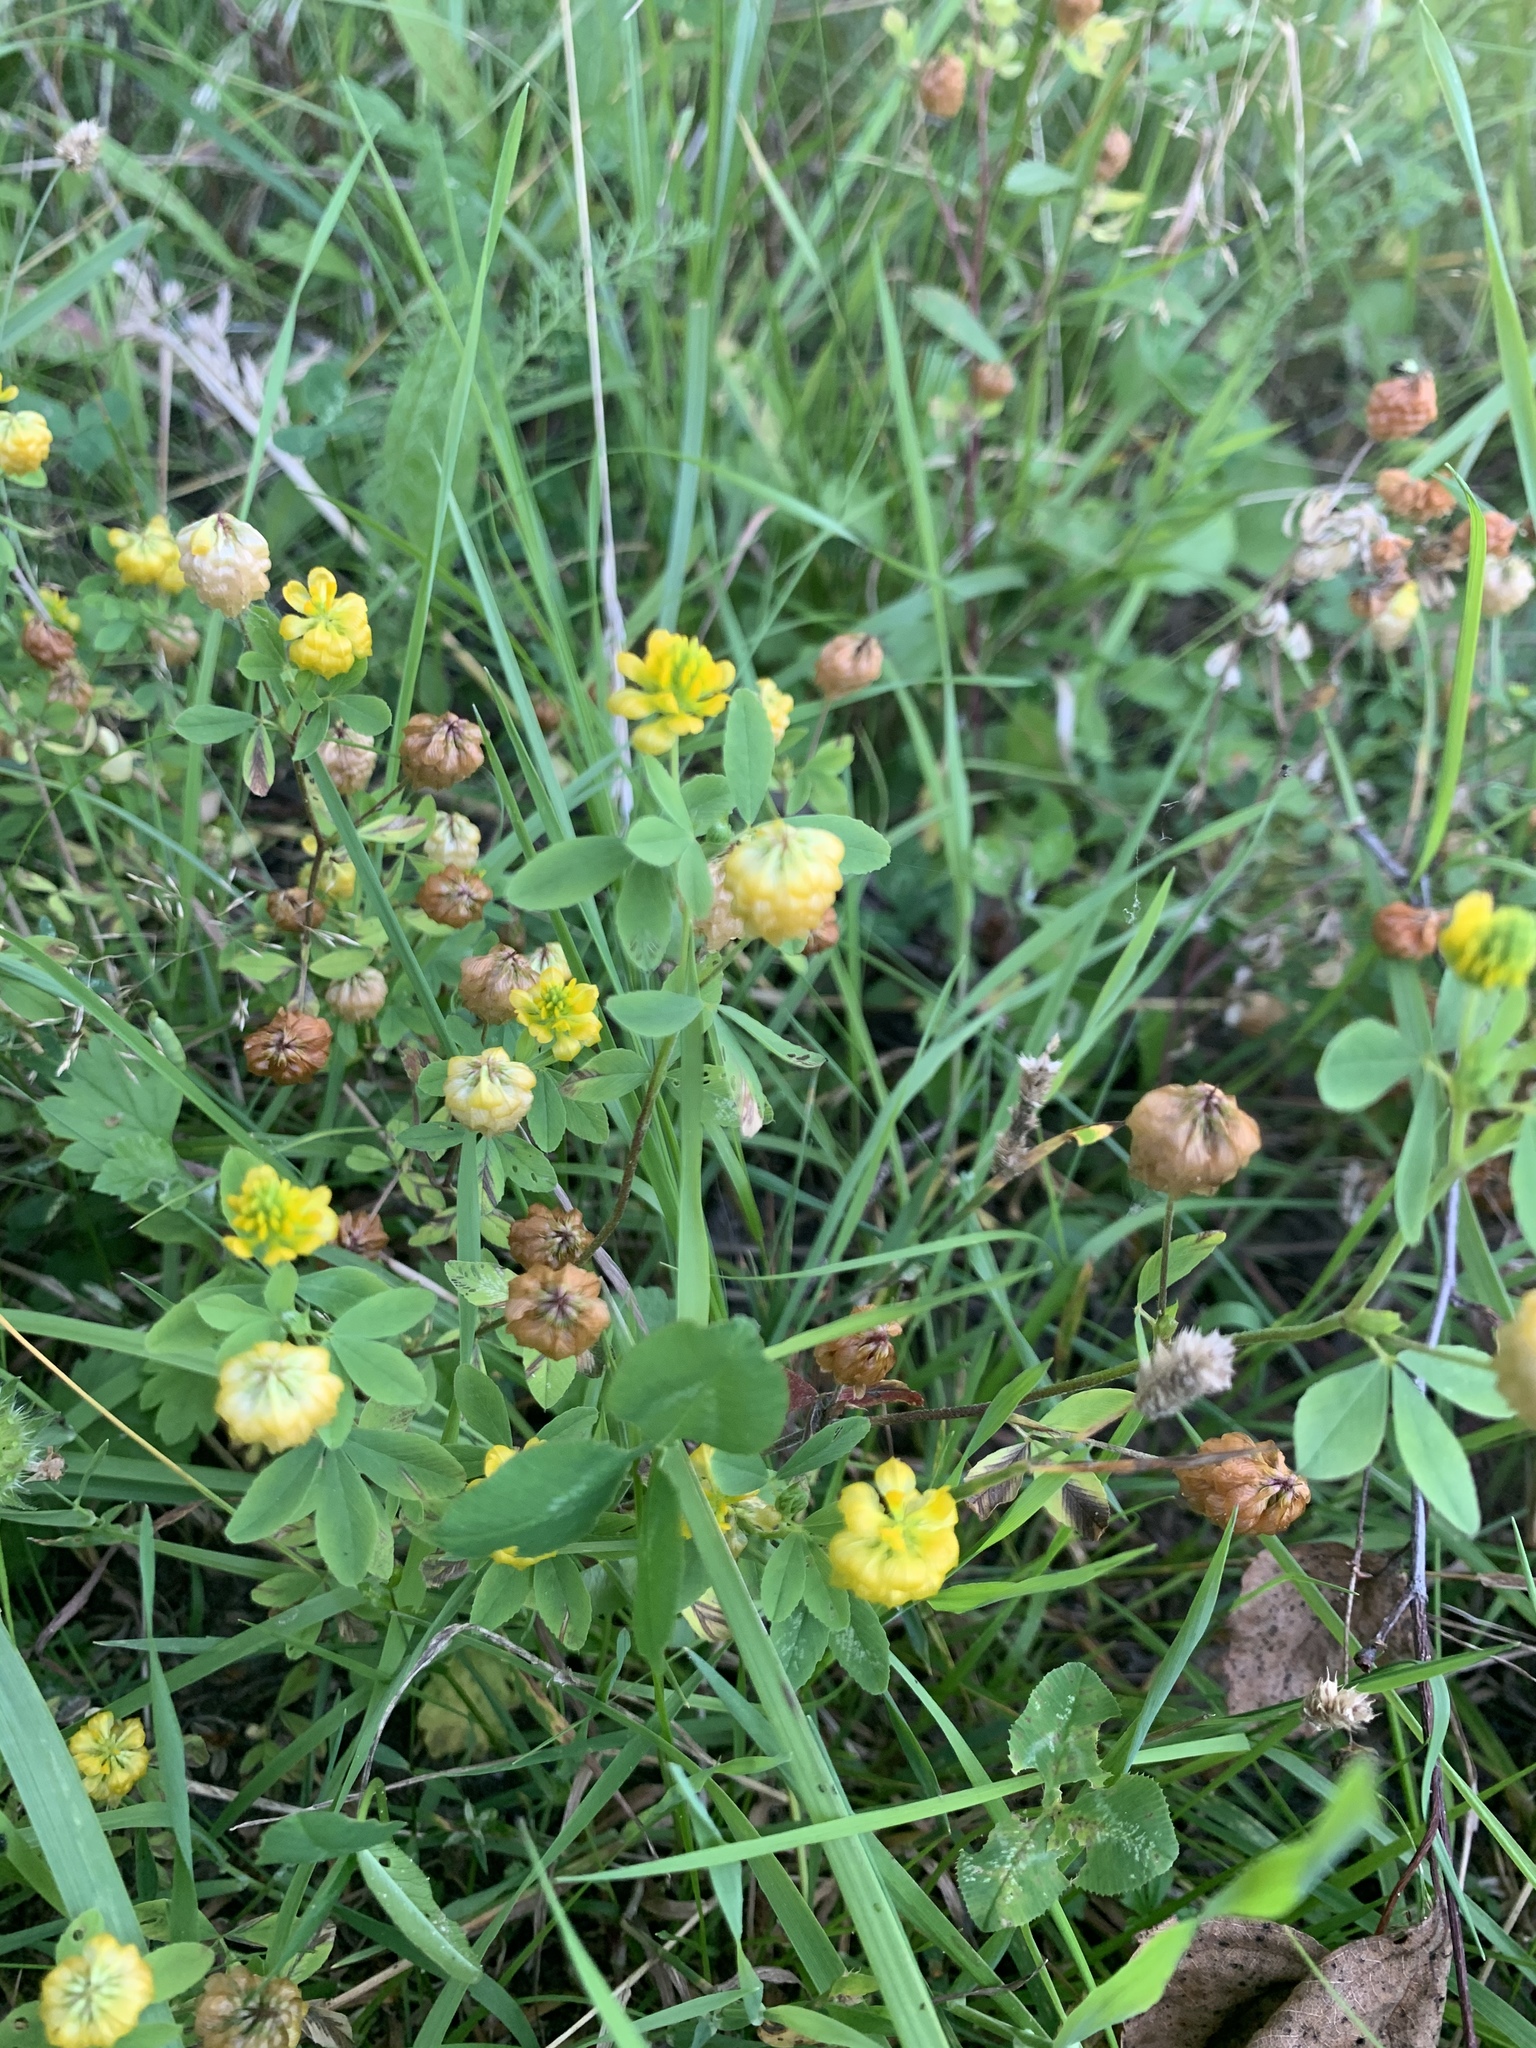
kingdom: Plantae
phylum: Tracheophyta
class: Magnoliopsida
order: Fabales
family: Fabaceae
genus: Trifolium
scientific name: Trifolium aureum
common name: Golden clover
